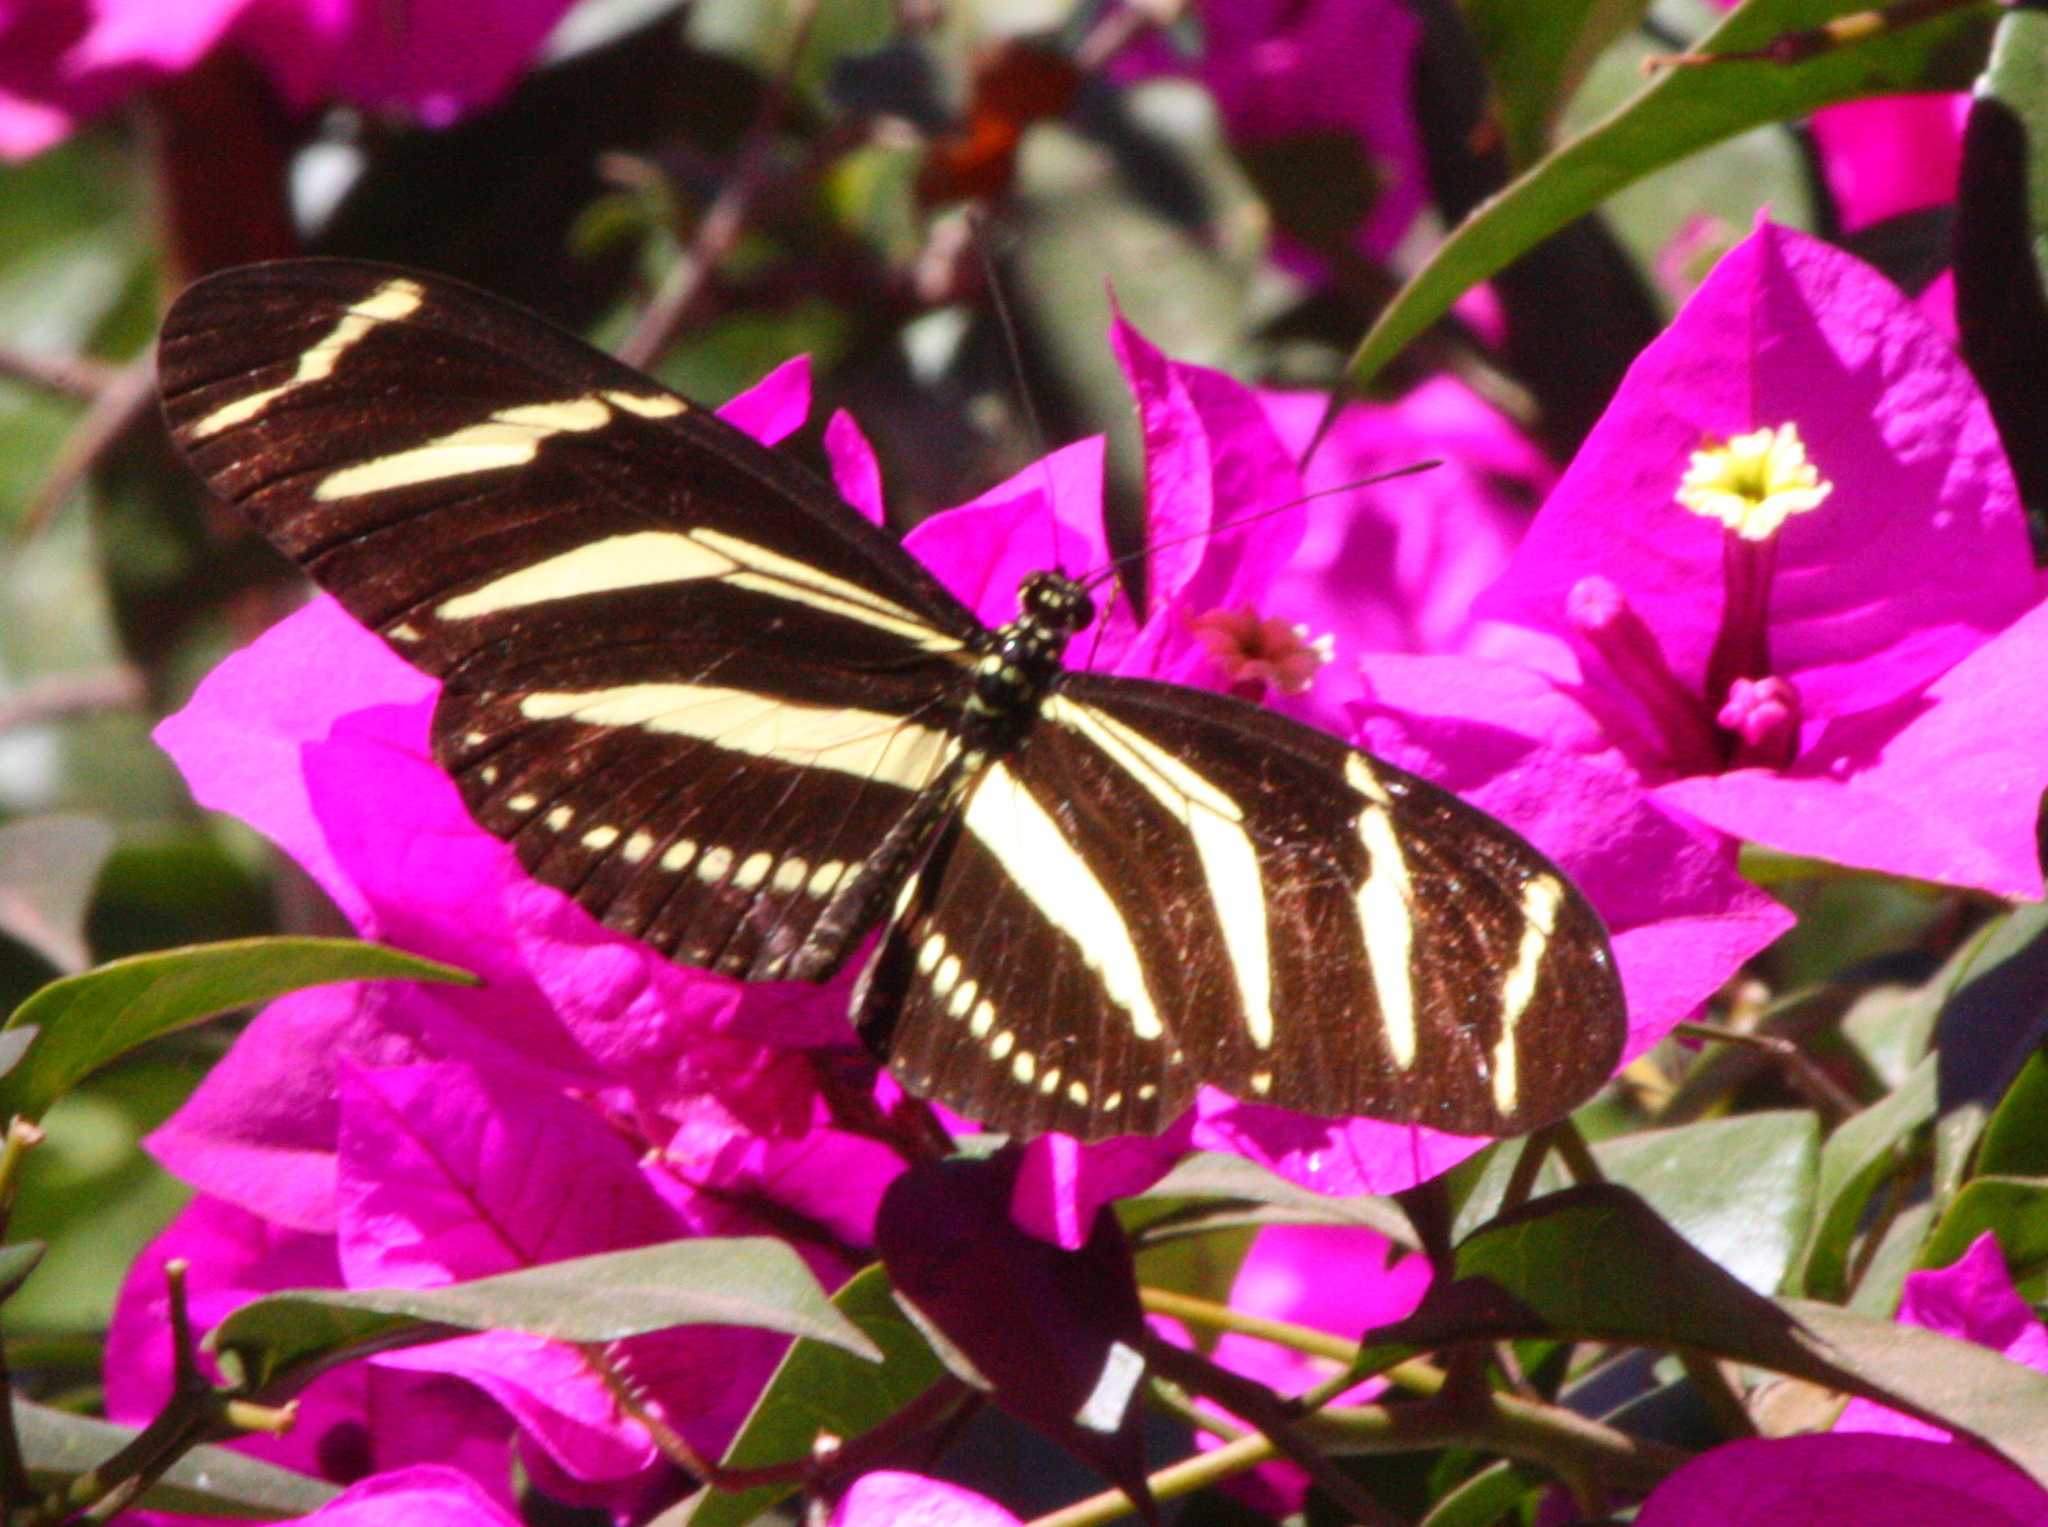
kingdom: Animalia
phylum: Arthropoda
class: Insecta
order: Lepidoptera
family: Nymphalidae
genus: Heliconius
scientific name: Heliconius charithonia
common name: Zebra long wing
